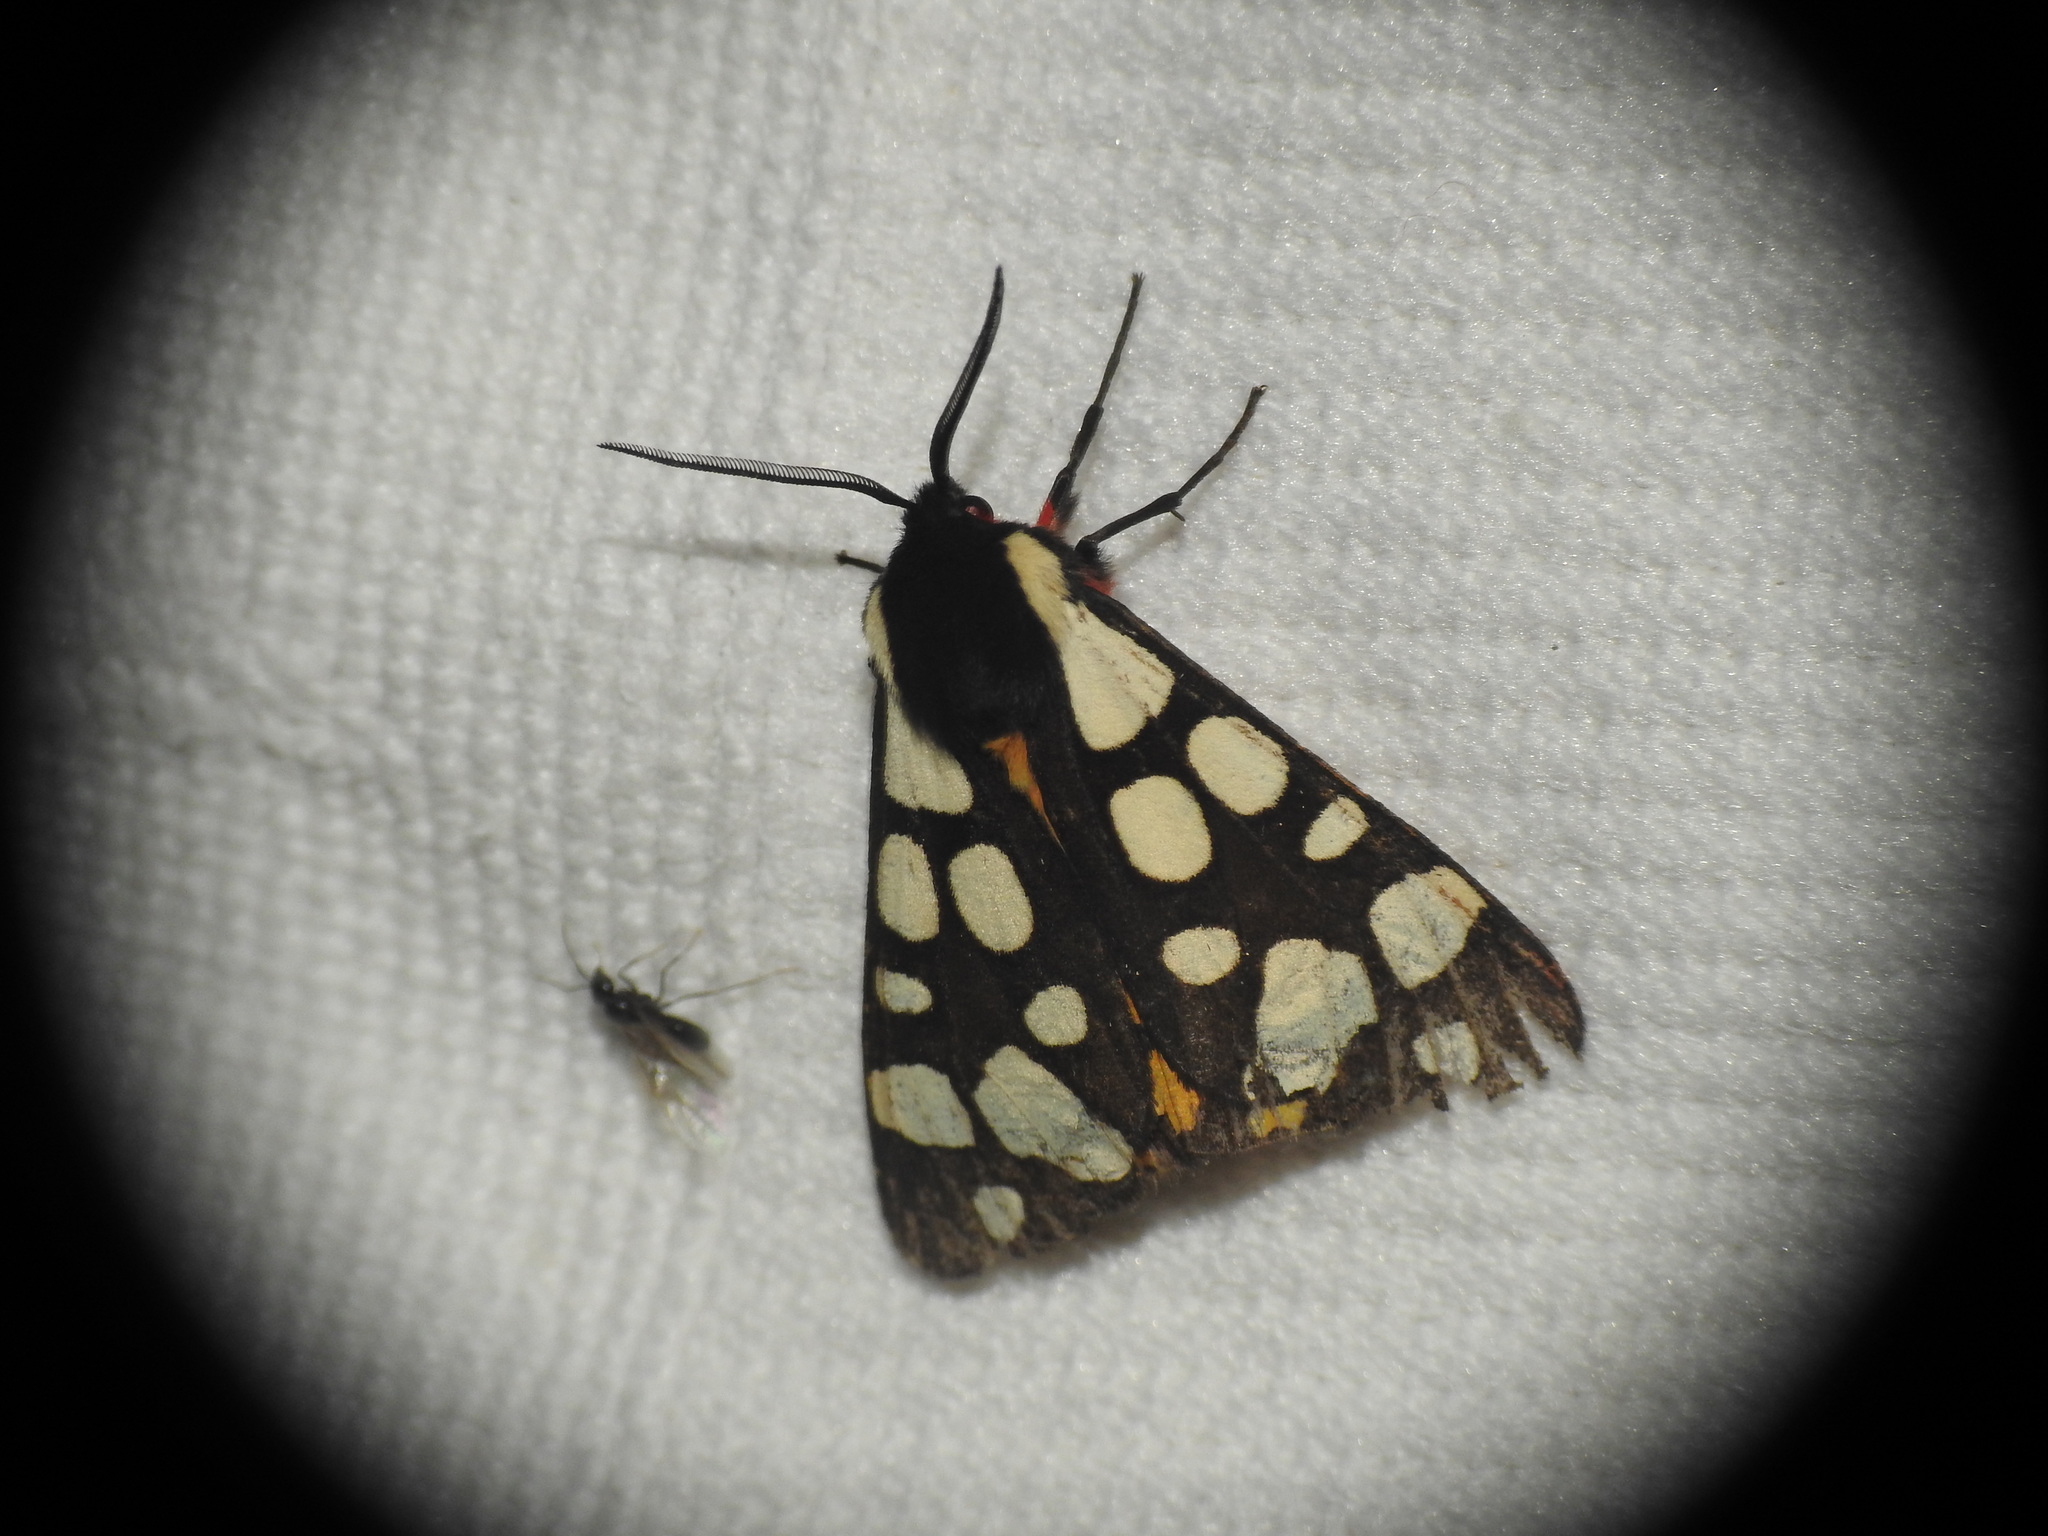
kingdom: Animalia
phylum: Arthropoda
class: Insecta
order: Lepidoptera
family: Erebidae
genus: Epicallia
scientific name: Epicallia villica
